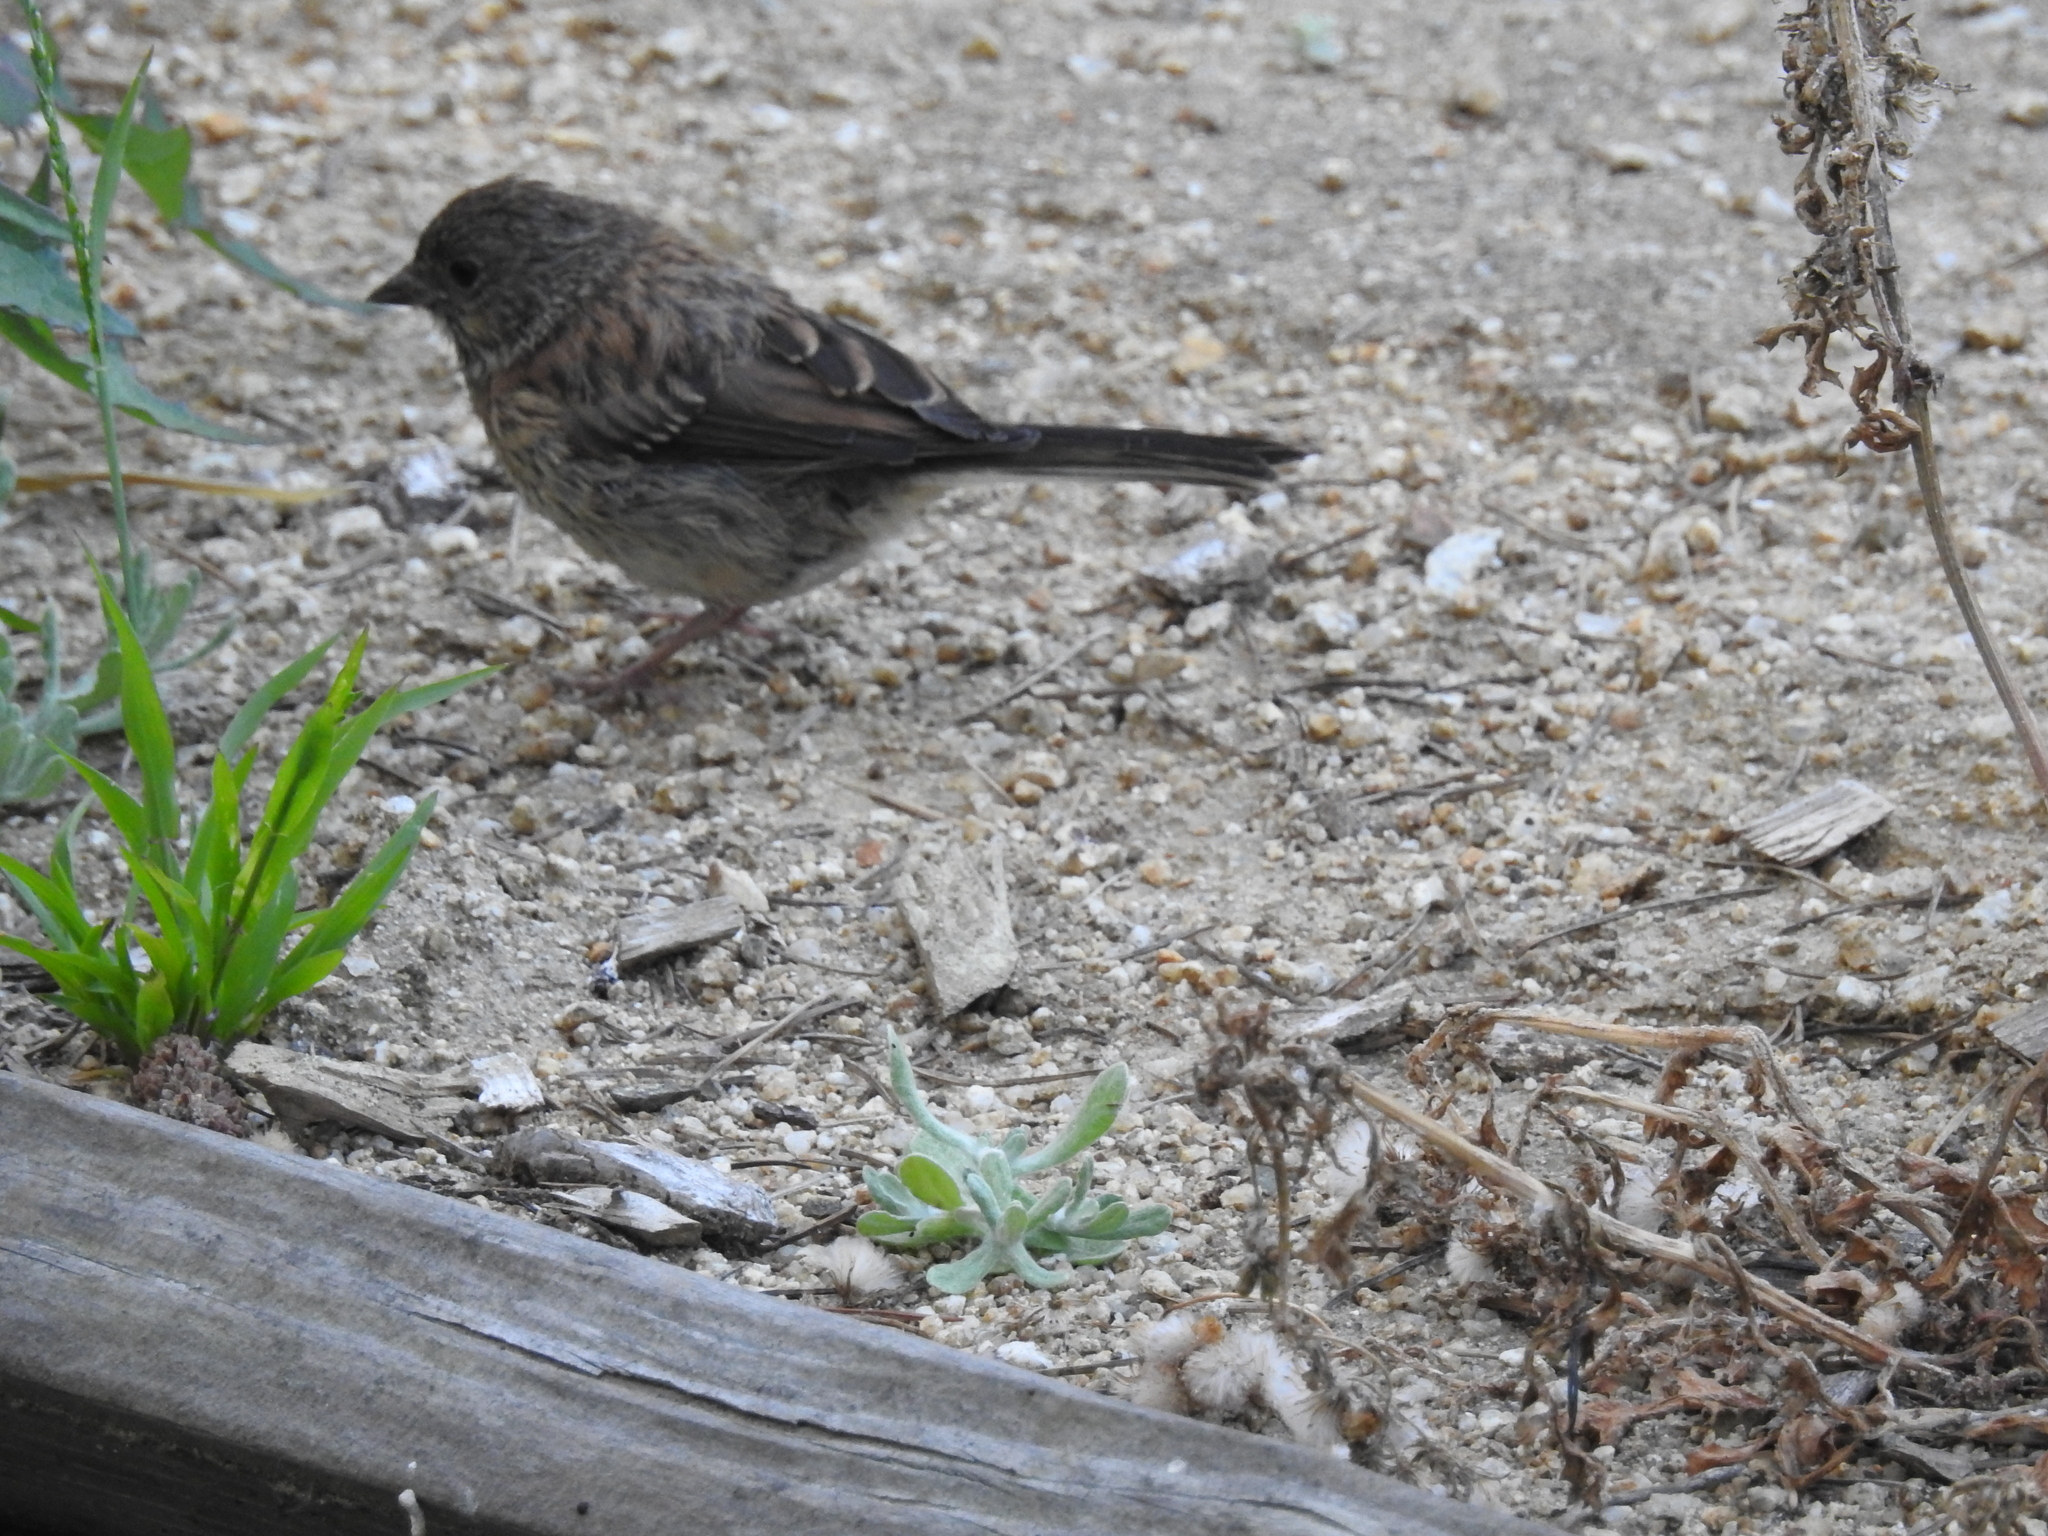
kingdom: Animalia
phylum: Chordata
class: Aves
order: Passeriformes
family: Passerellidae
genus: Junco
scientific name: Junco hyemalis
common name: Dark-eyed junco
